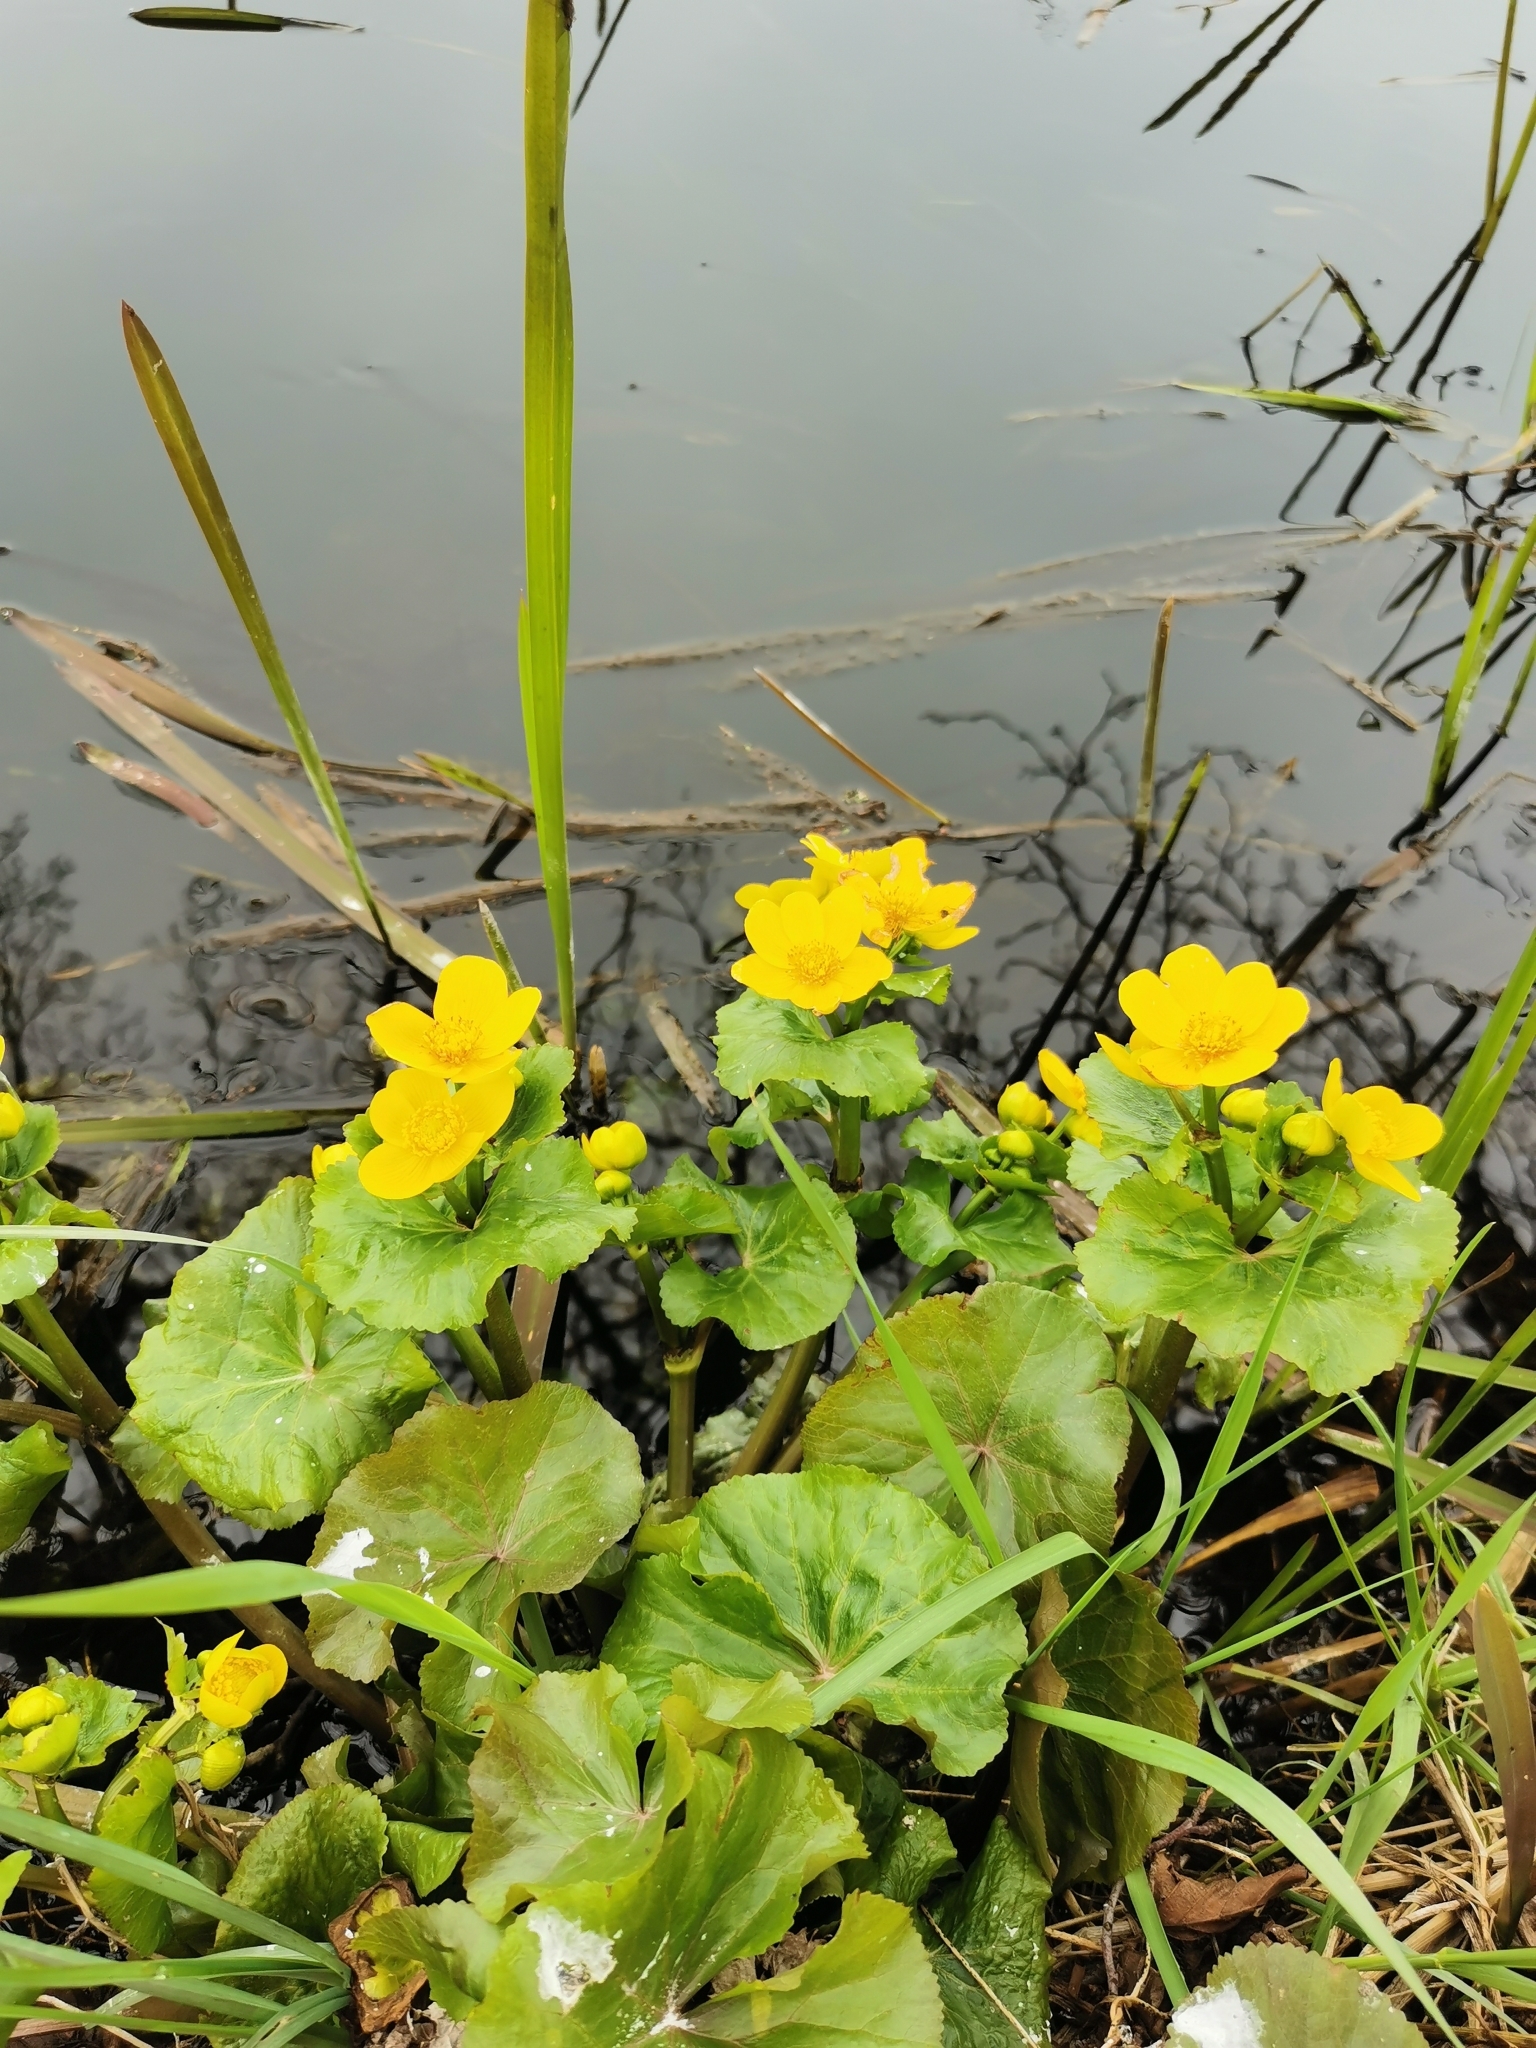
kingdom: Plantae
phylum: Tracheophyta
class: Magnoliopsida
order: Ranunculales
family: Ranunculaceae
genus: Caltha
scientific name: Caltha palustris
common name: Marsh marigold
